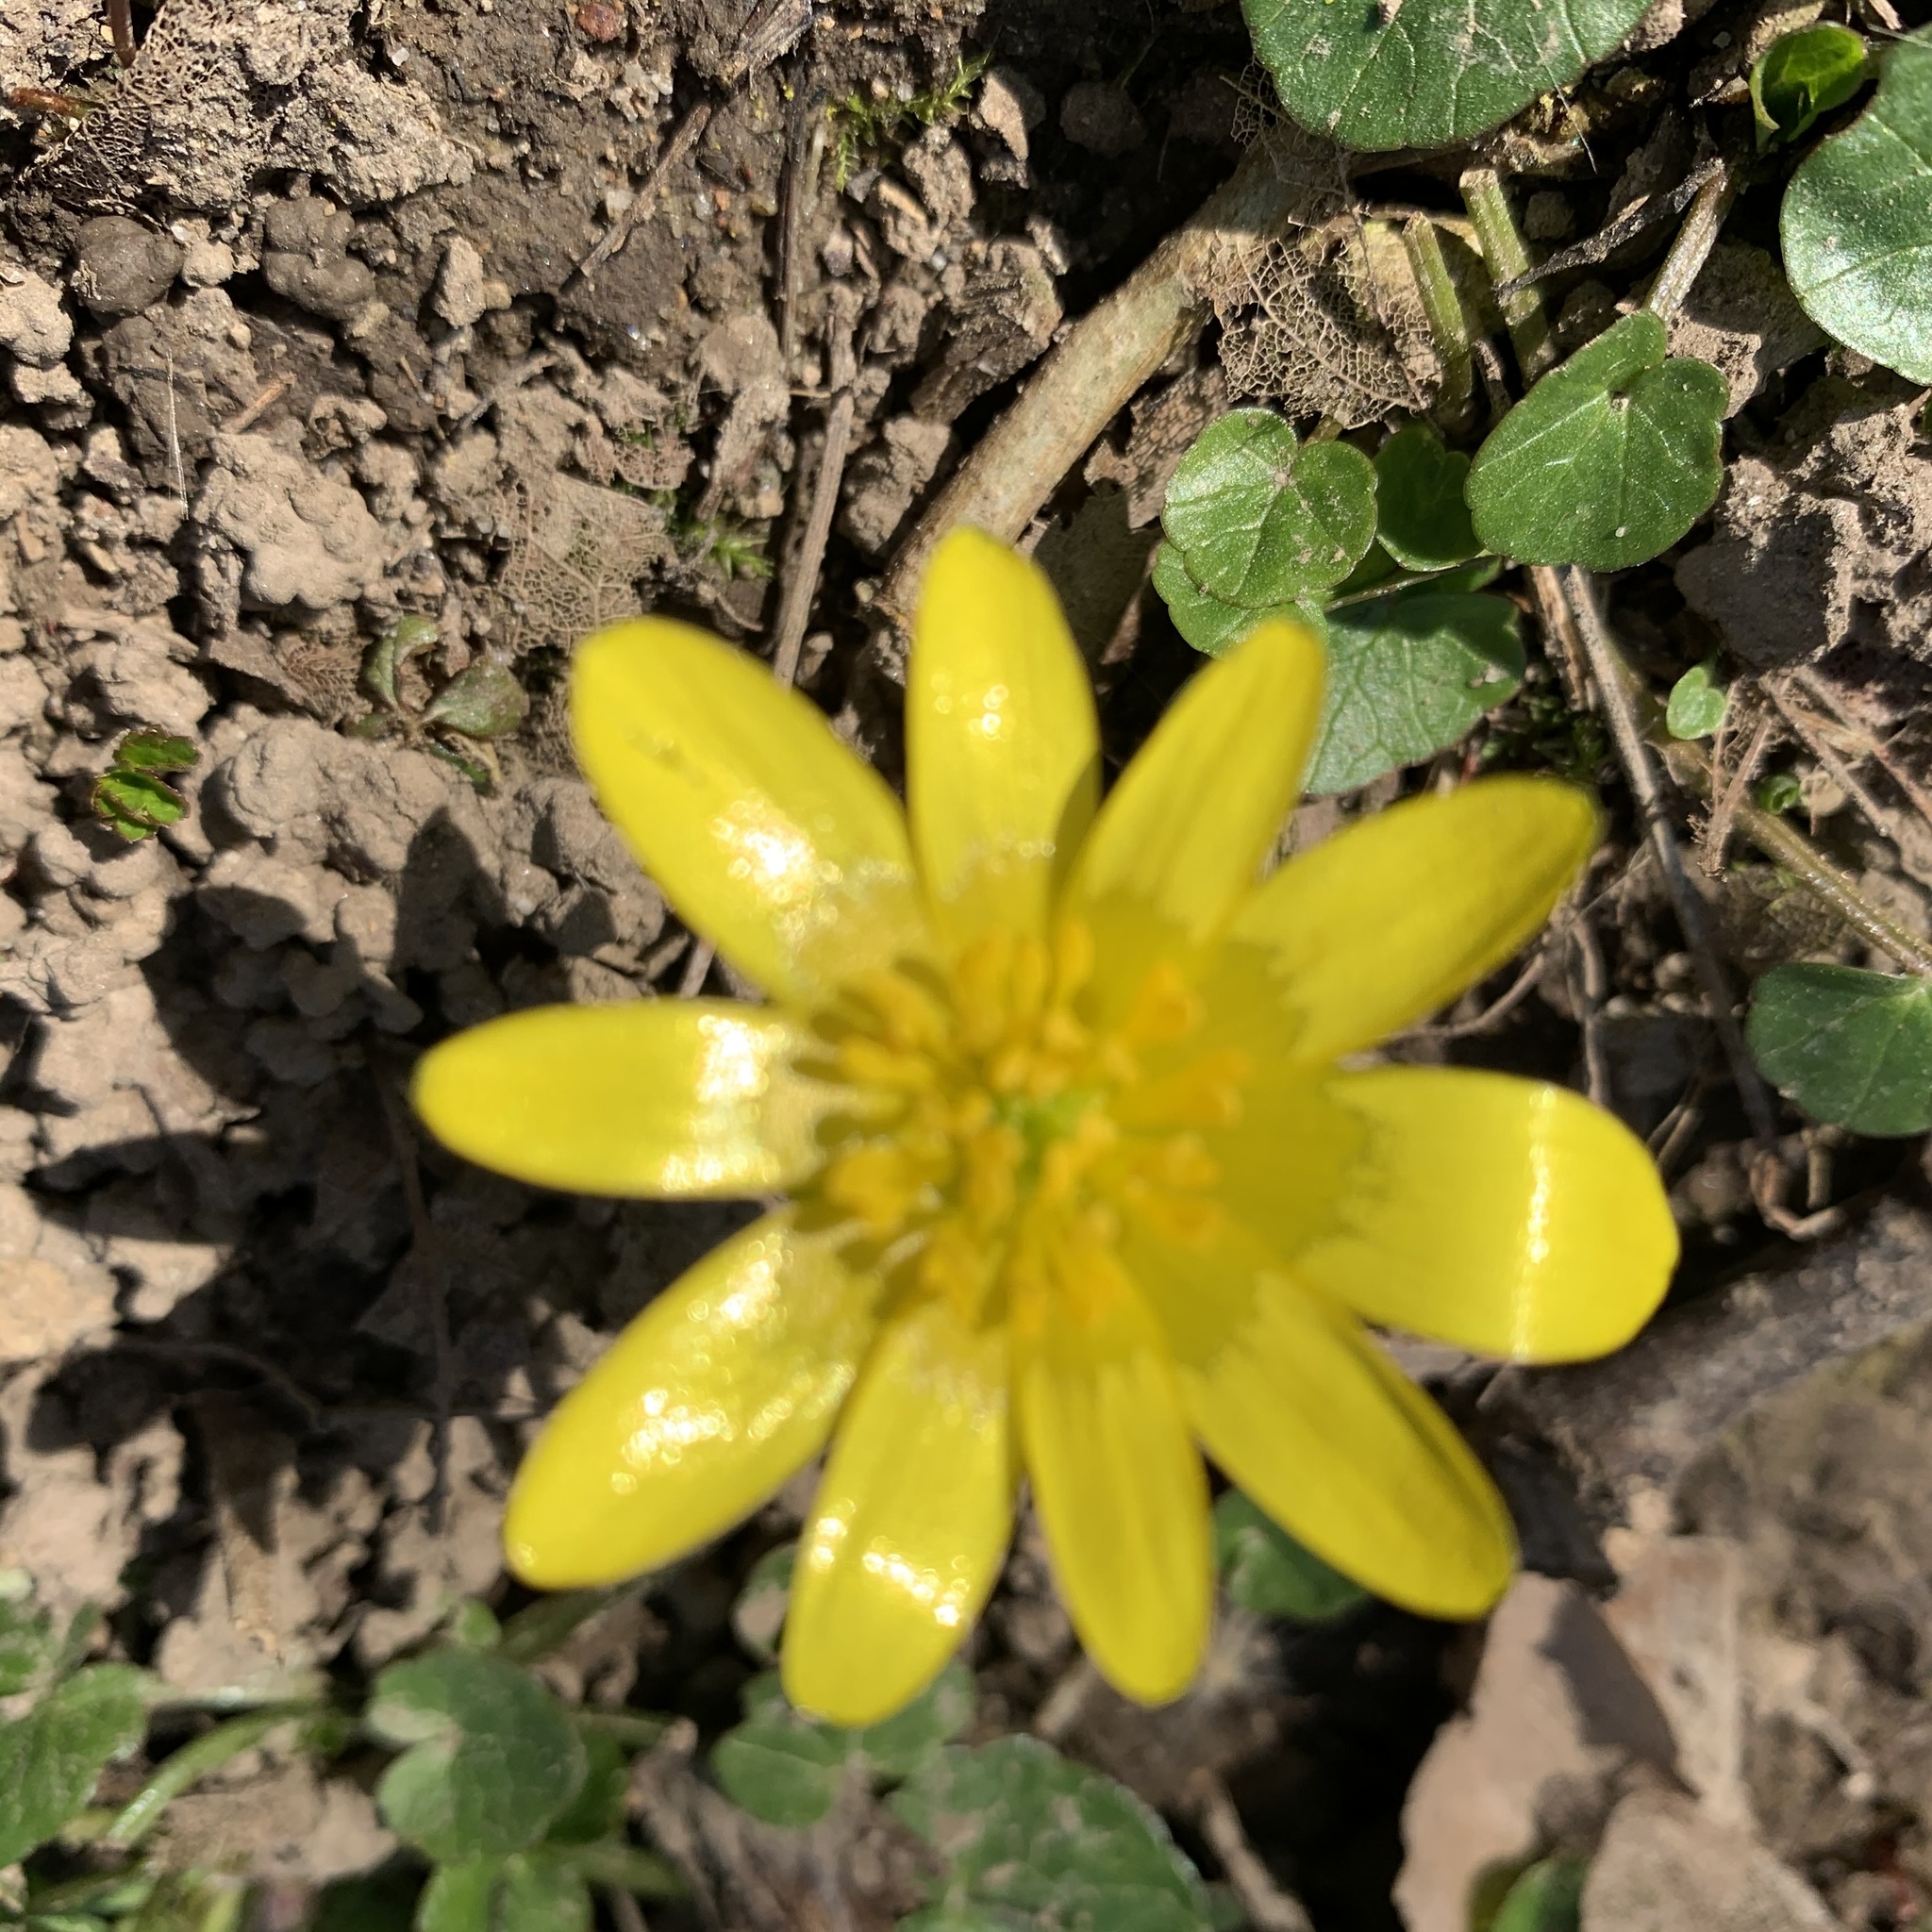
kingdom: Plantae
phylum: Tracheophyta
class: Magnoliopsida
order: Ranunculales
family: Ranunculaceae
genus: Ficaria
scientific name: Ficaria verna
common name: Lesser celandine
